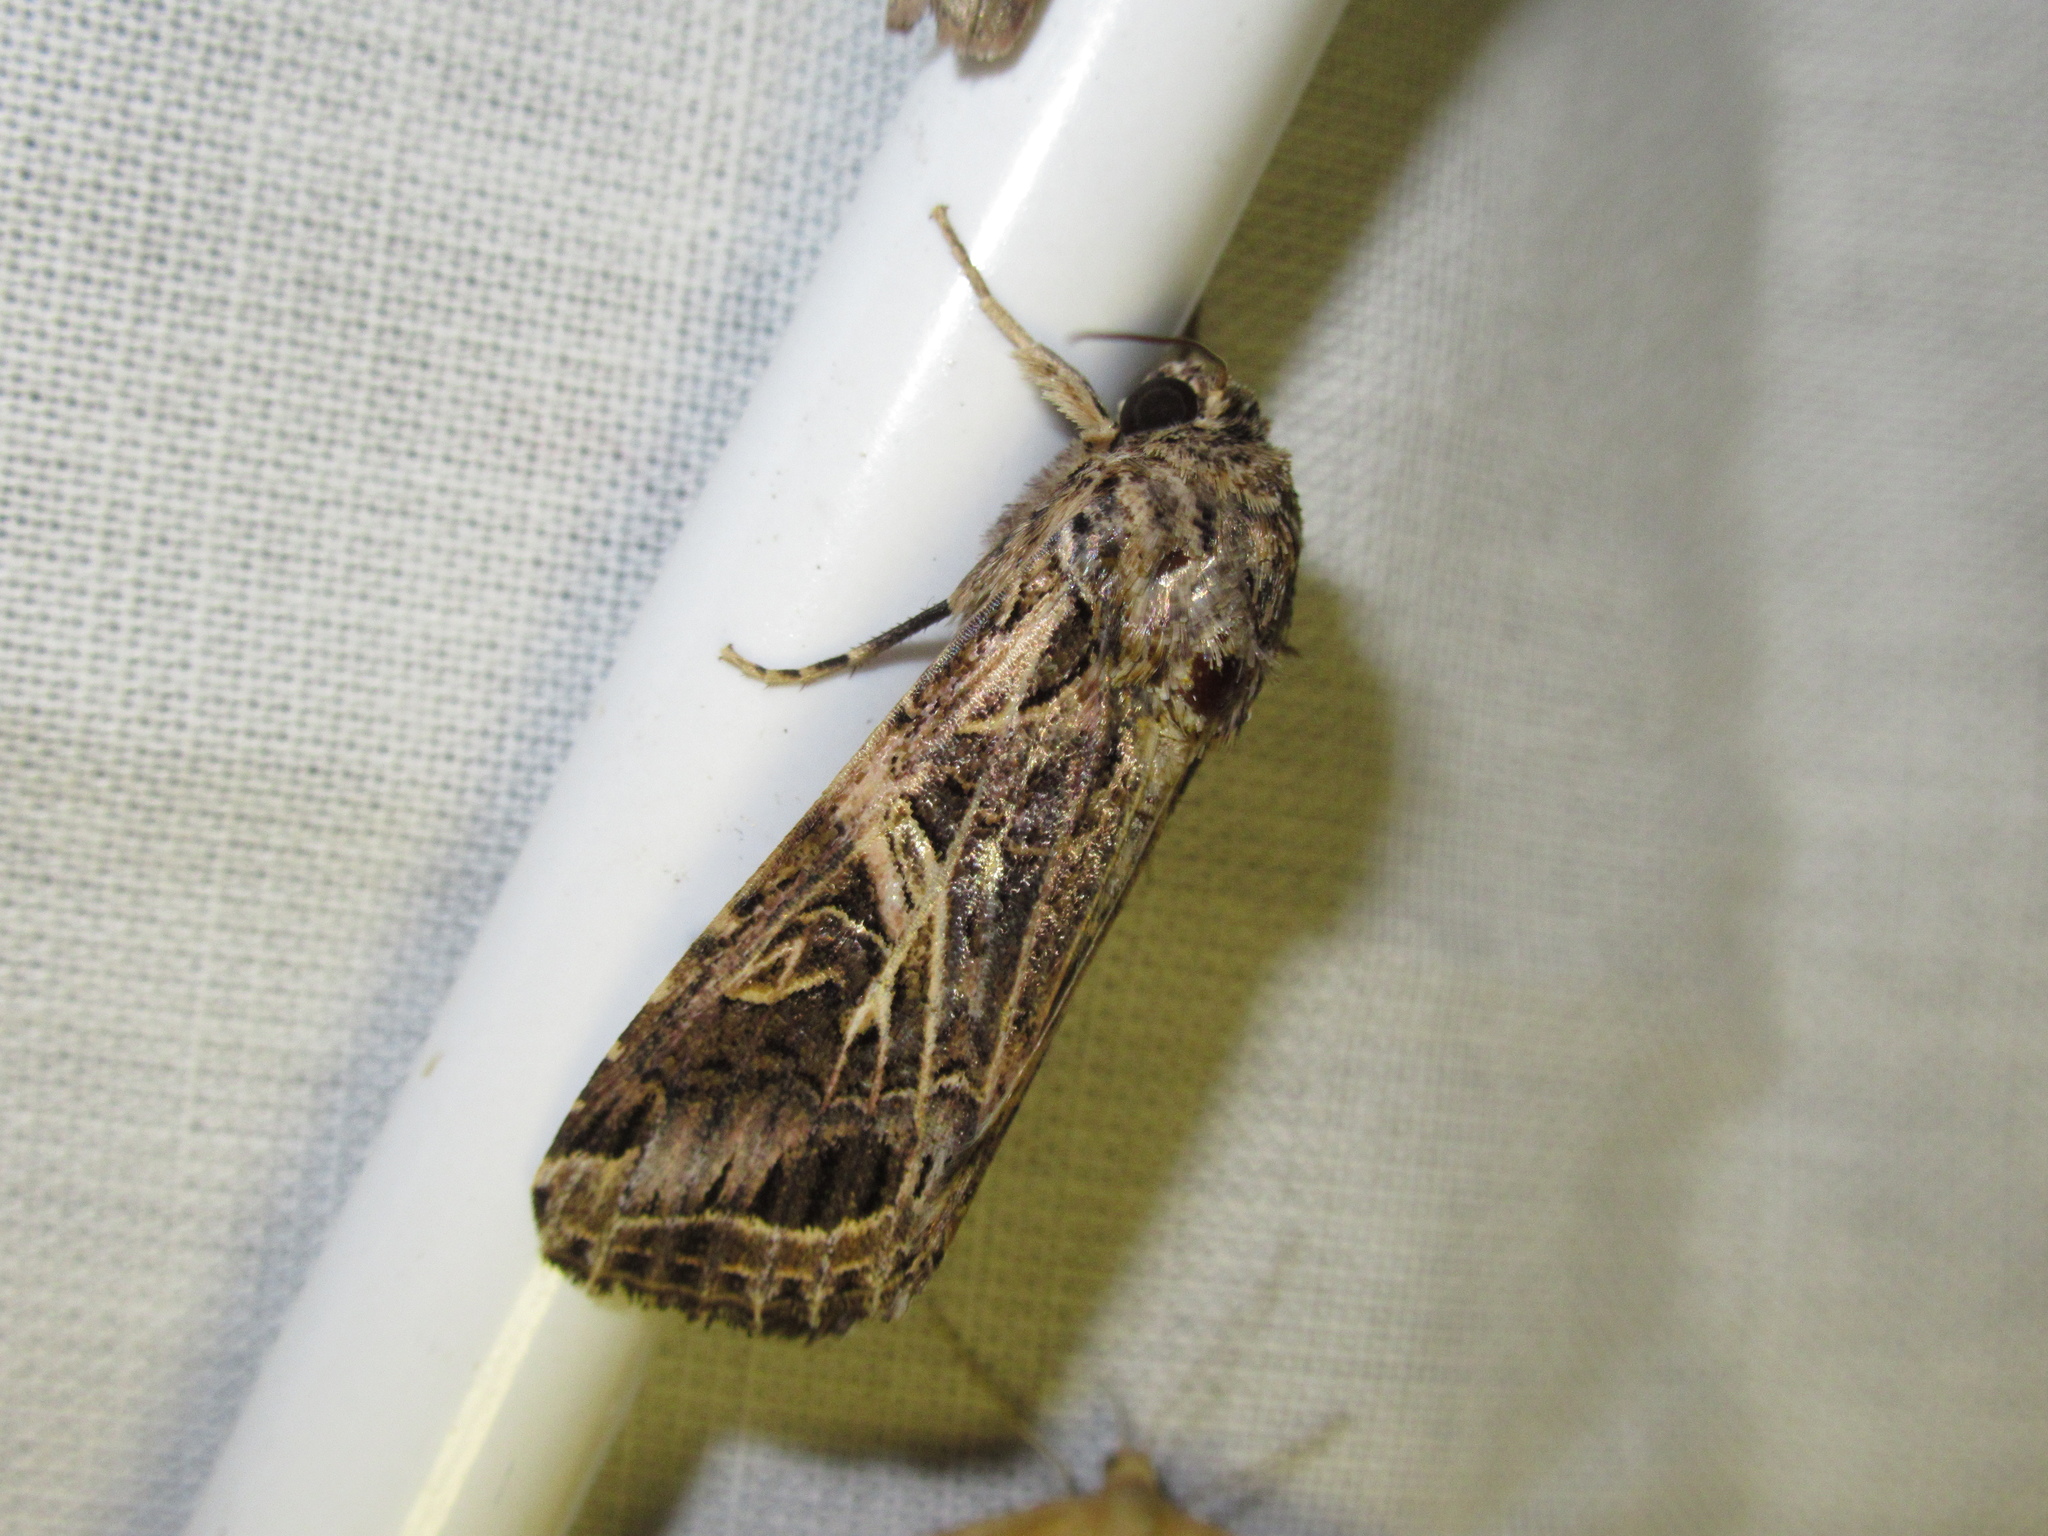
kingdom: Animalia
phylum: Arthropoda
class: Insecta
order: Lepidoptera
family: Noctuidae
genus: Spodoptera
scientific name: Spodoptera litura
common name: Asian cotton leafworm
